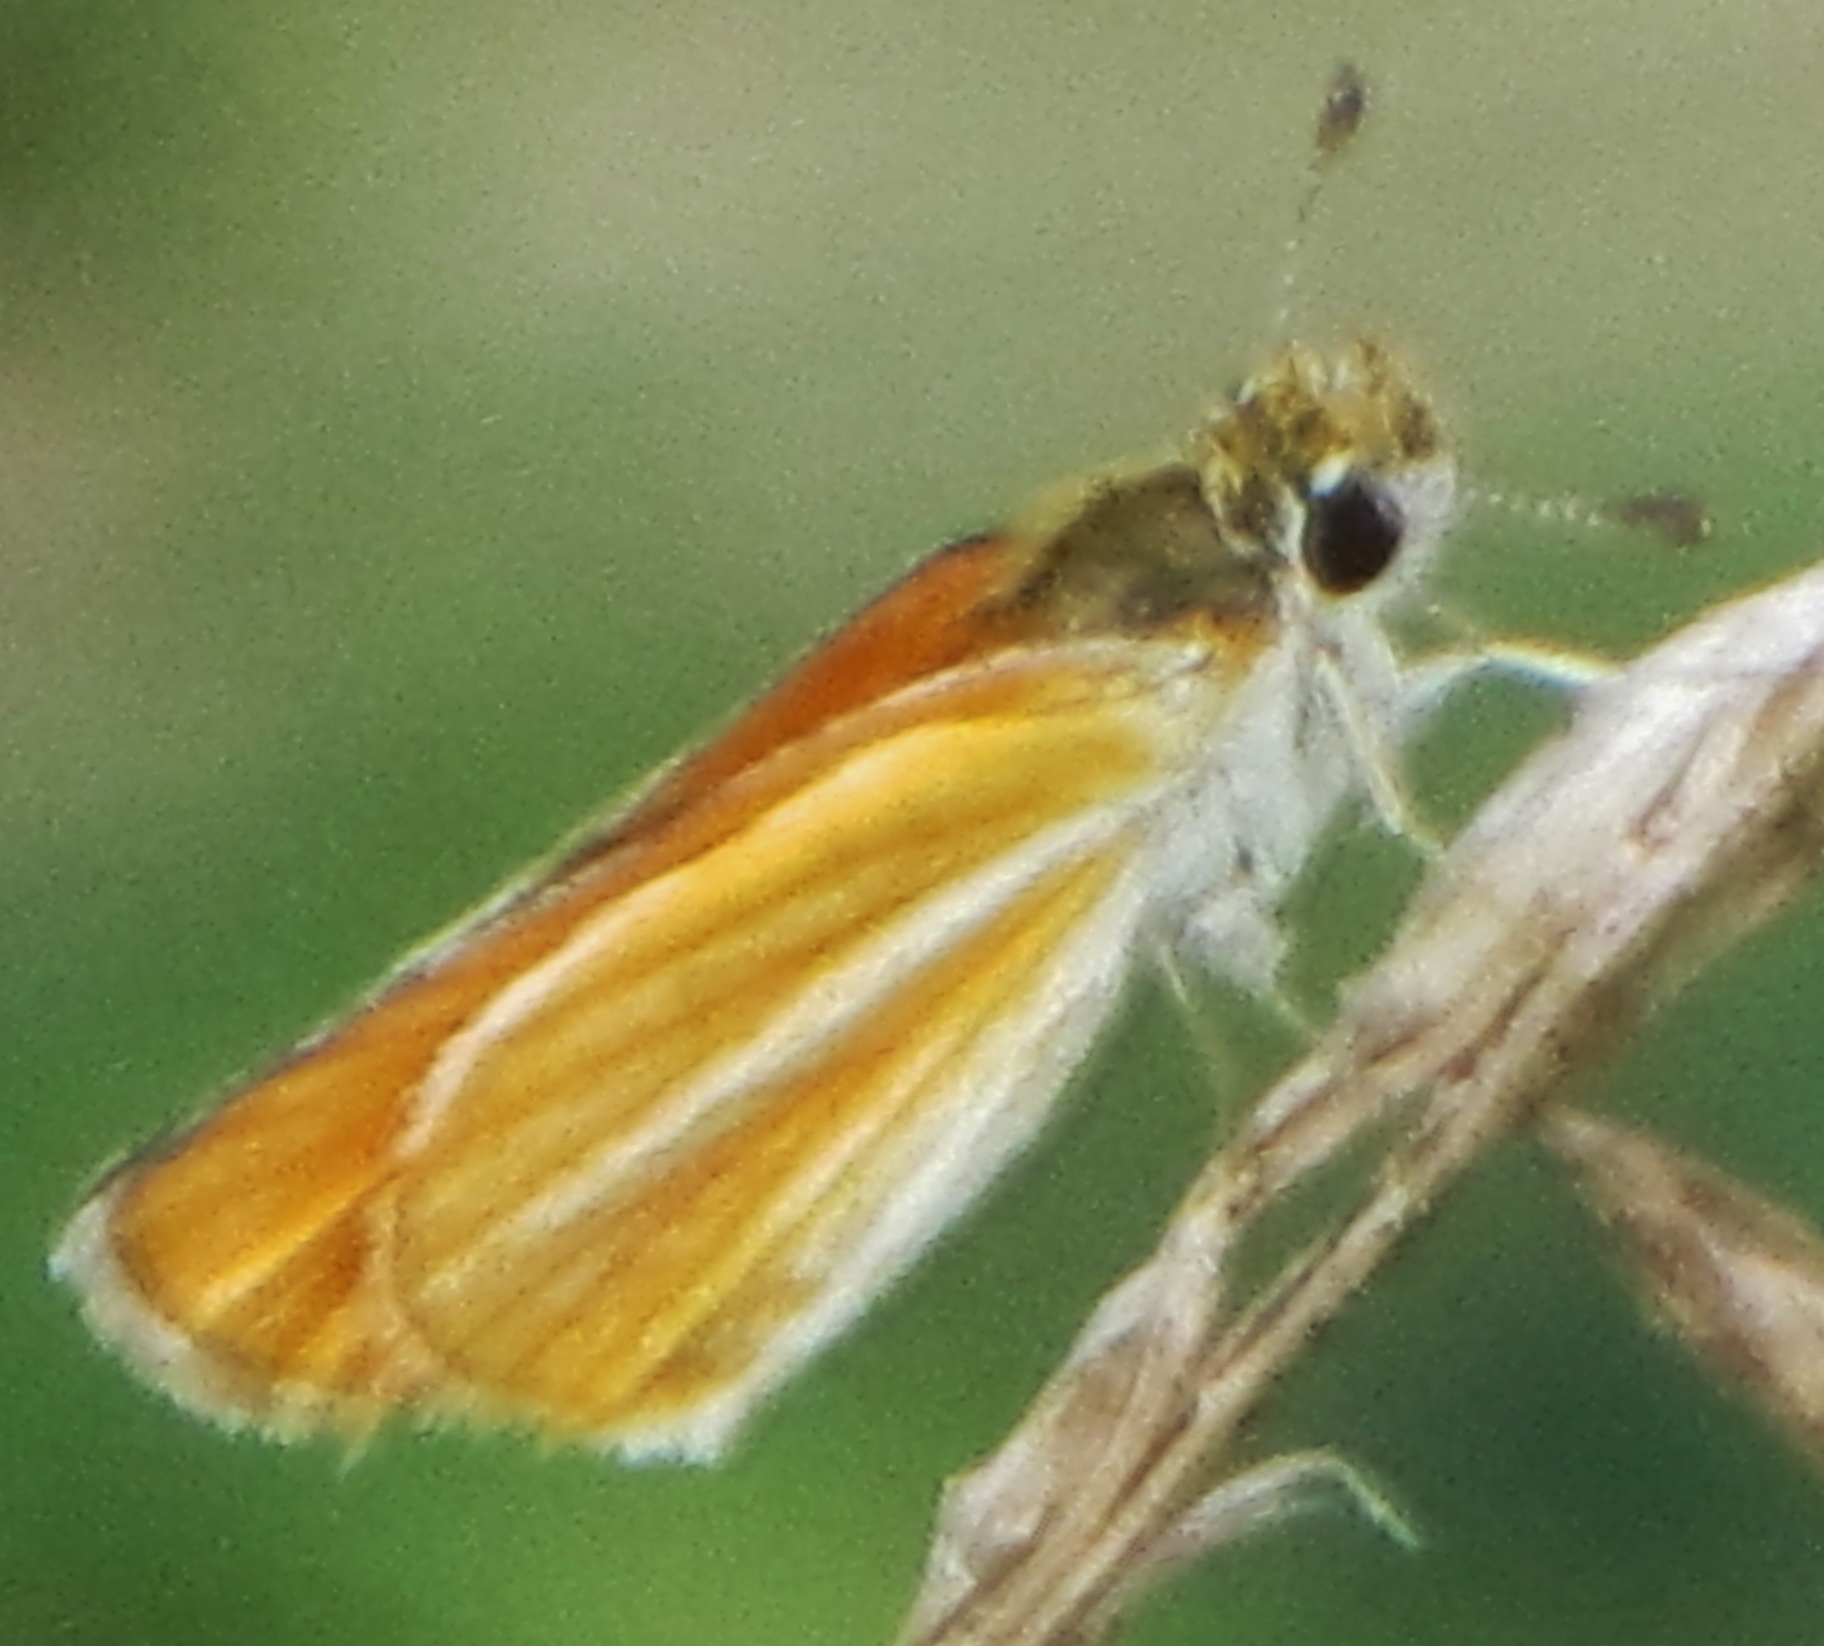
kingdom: Animalia
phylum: Arthropoda
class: Insecta
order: Lepidoptera
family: Hesperiidae
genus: Copaeodes
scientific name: Copaeodes minima
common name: Southern skipperling
